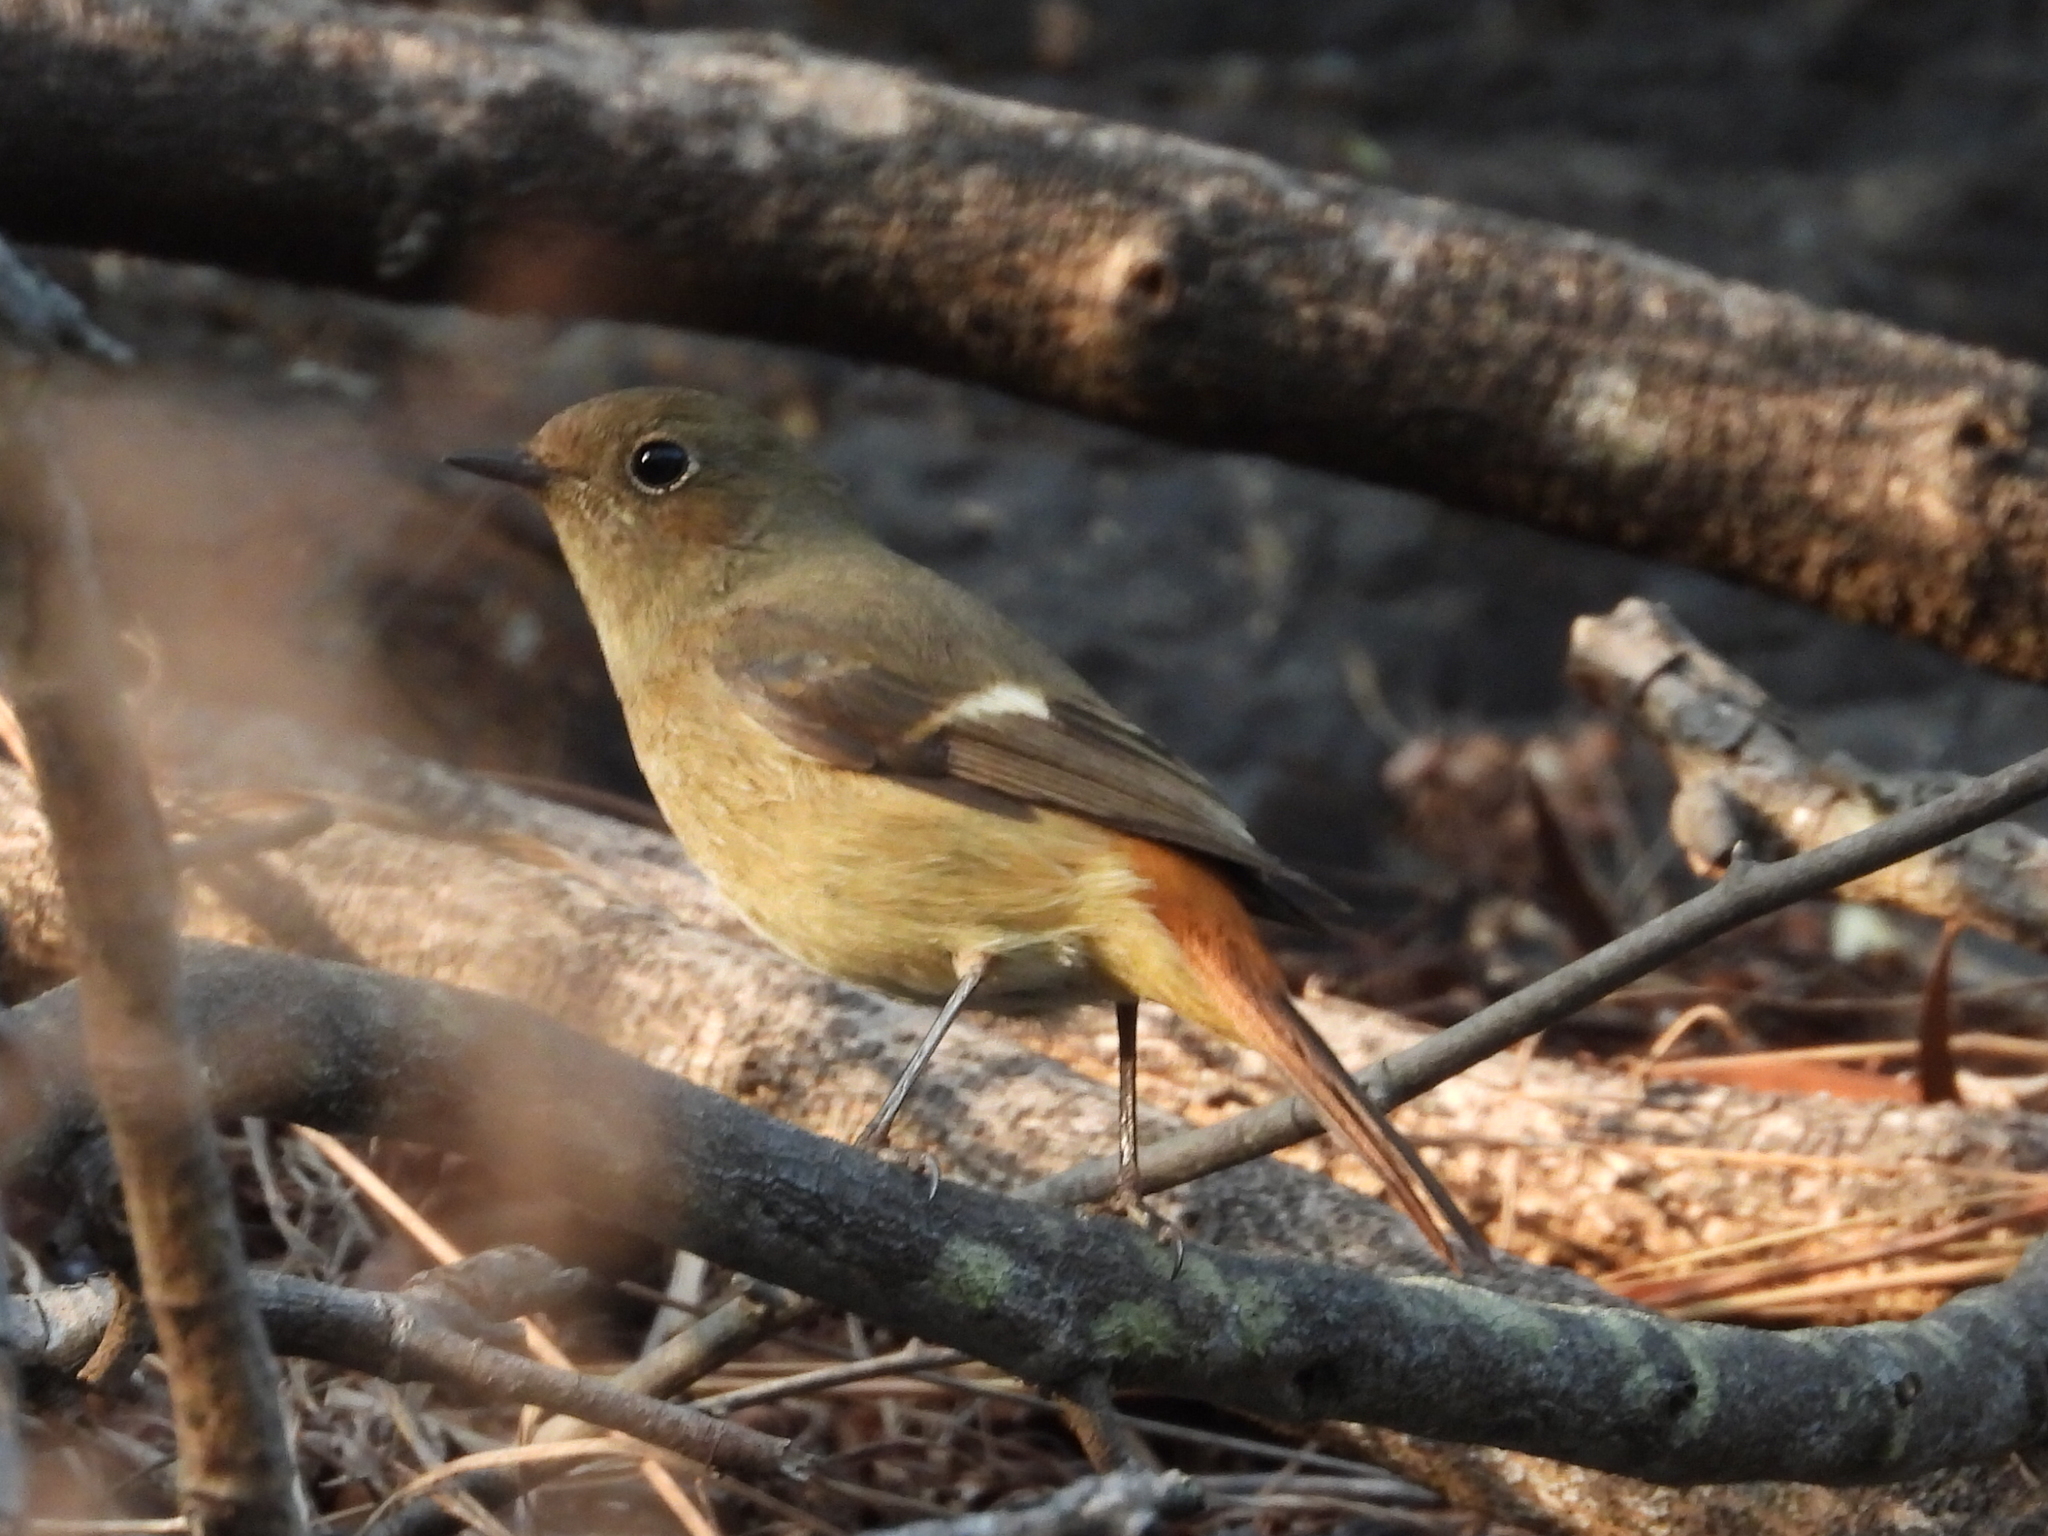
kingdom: Animalia
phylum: Chordata
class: Aves
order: Passeriformes
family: Muscicapidae
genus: Phoenicurus
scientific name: Phoenicurus auroreus
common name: Daurian redstart
